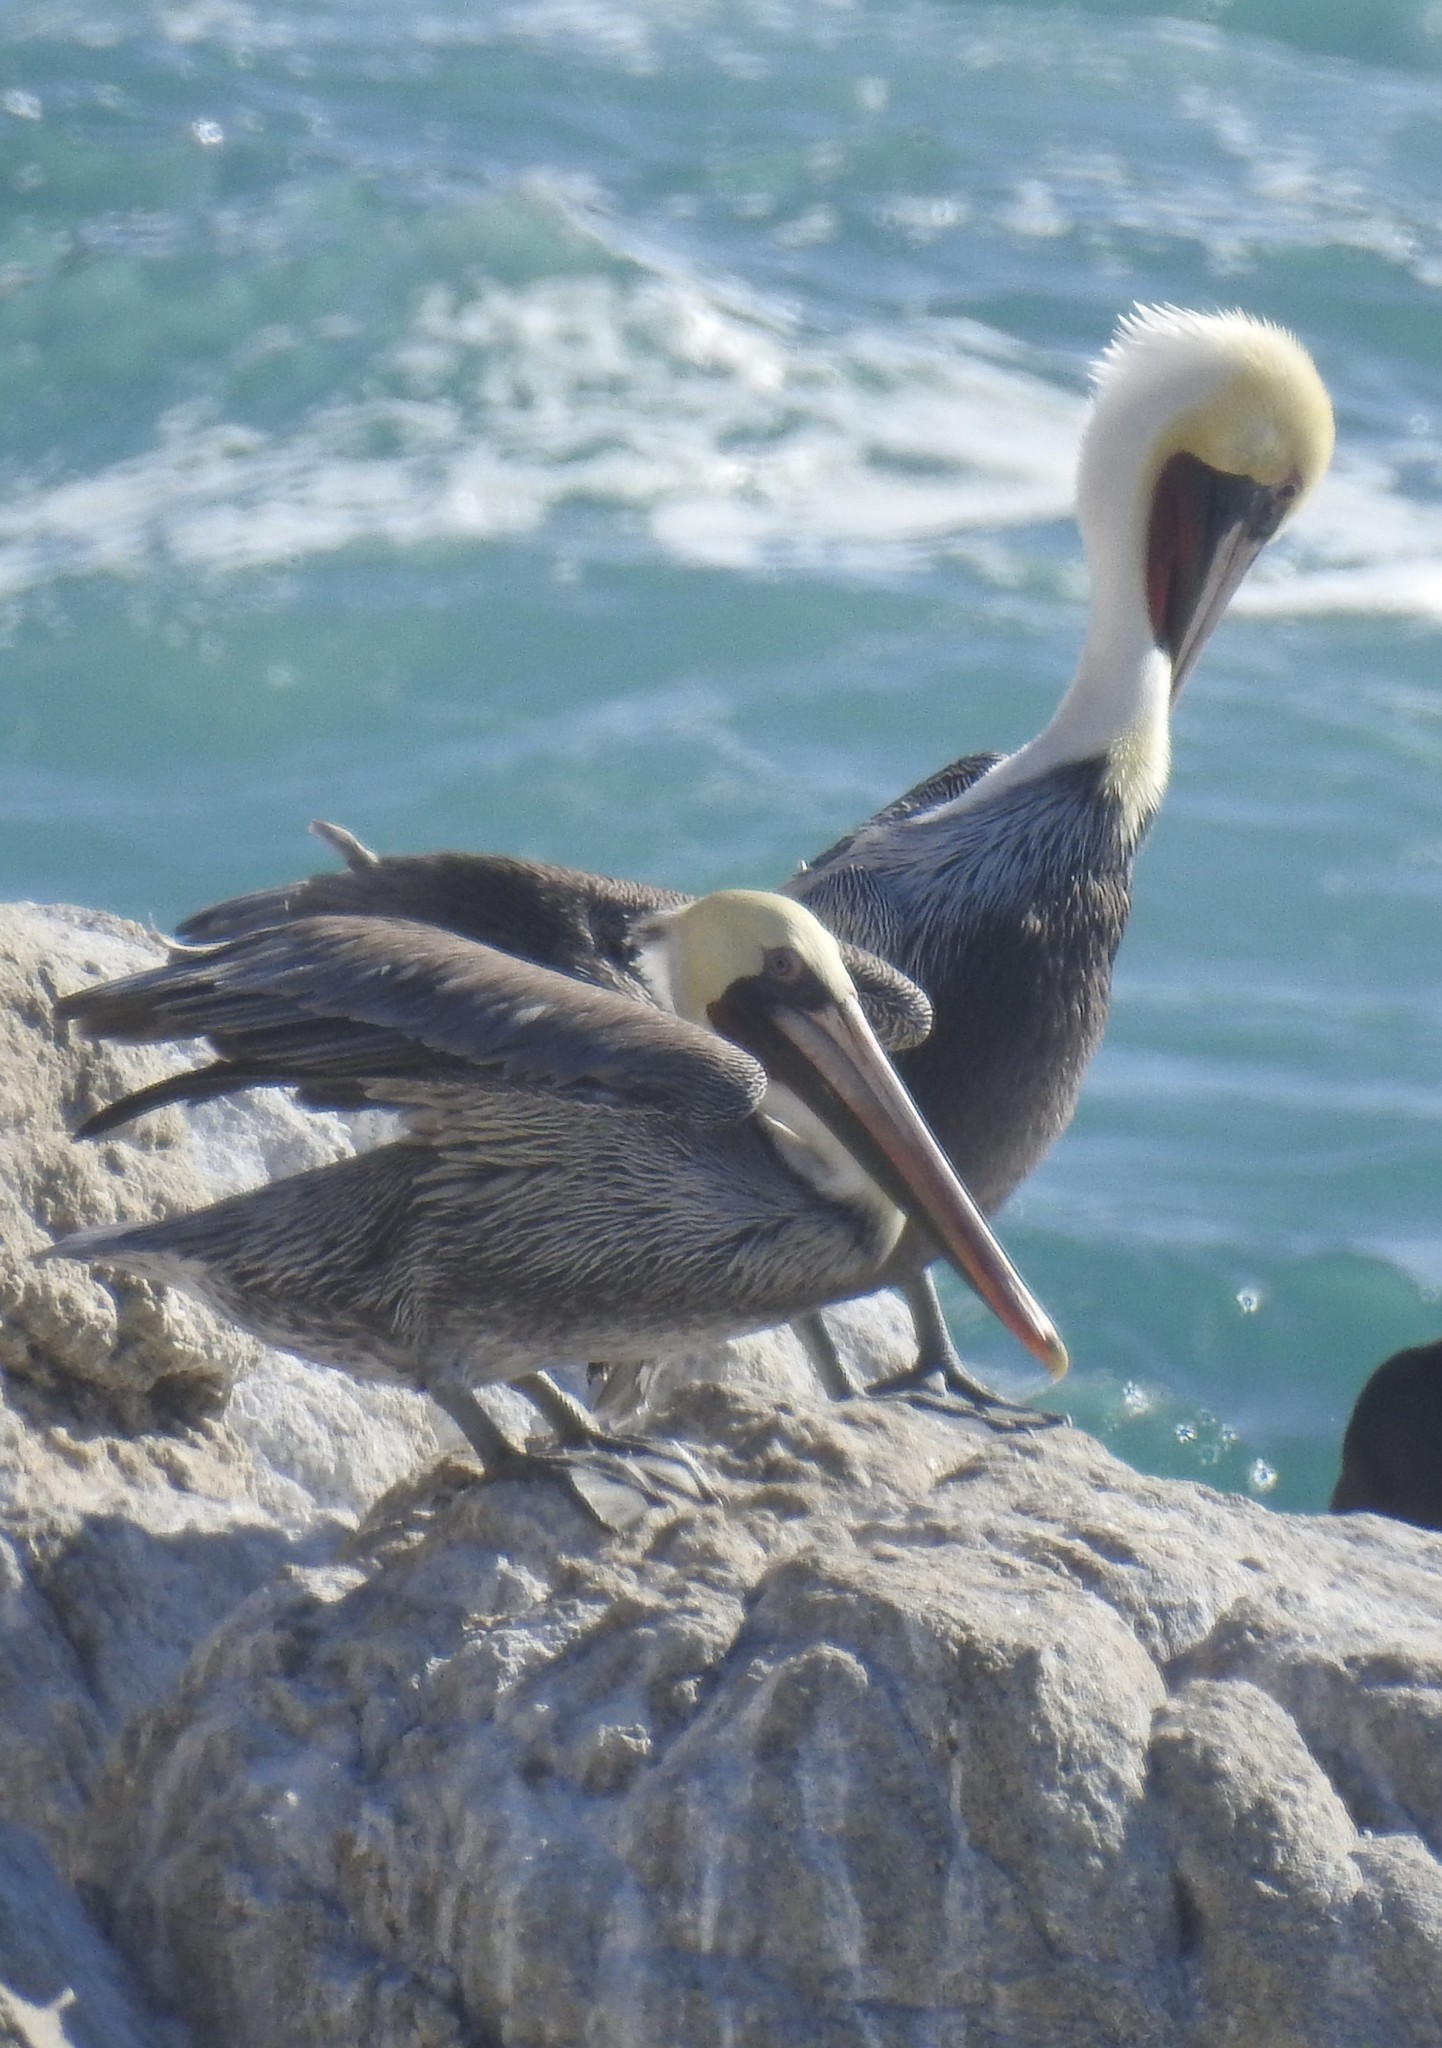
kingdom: Animalia
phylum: Chordata
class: Aves
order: Pelecaniformes
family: Pelecanidae
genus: Pelecanus
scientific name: Pelecanus occidentalis
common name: Brown pelican
